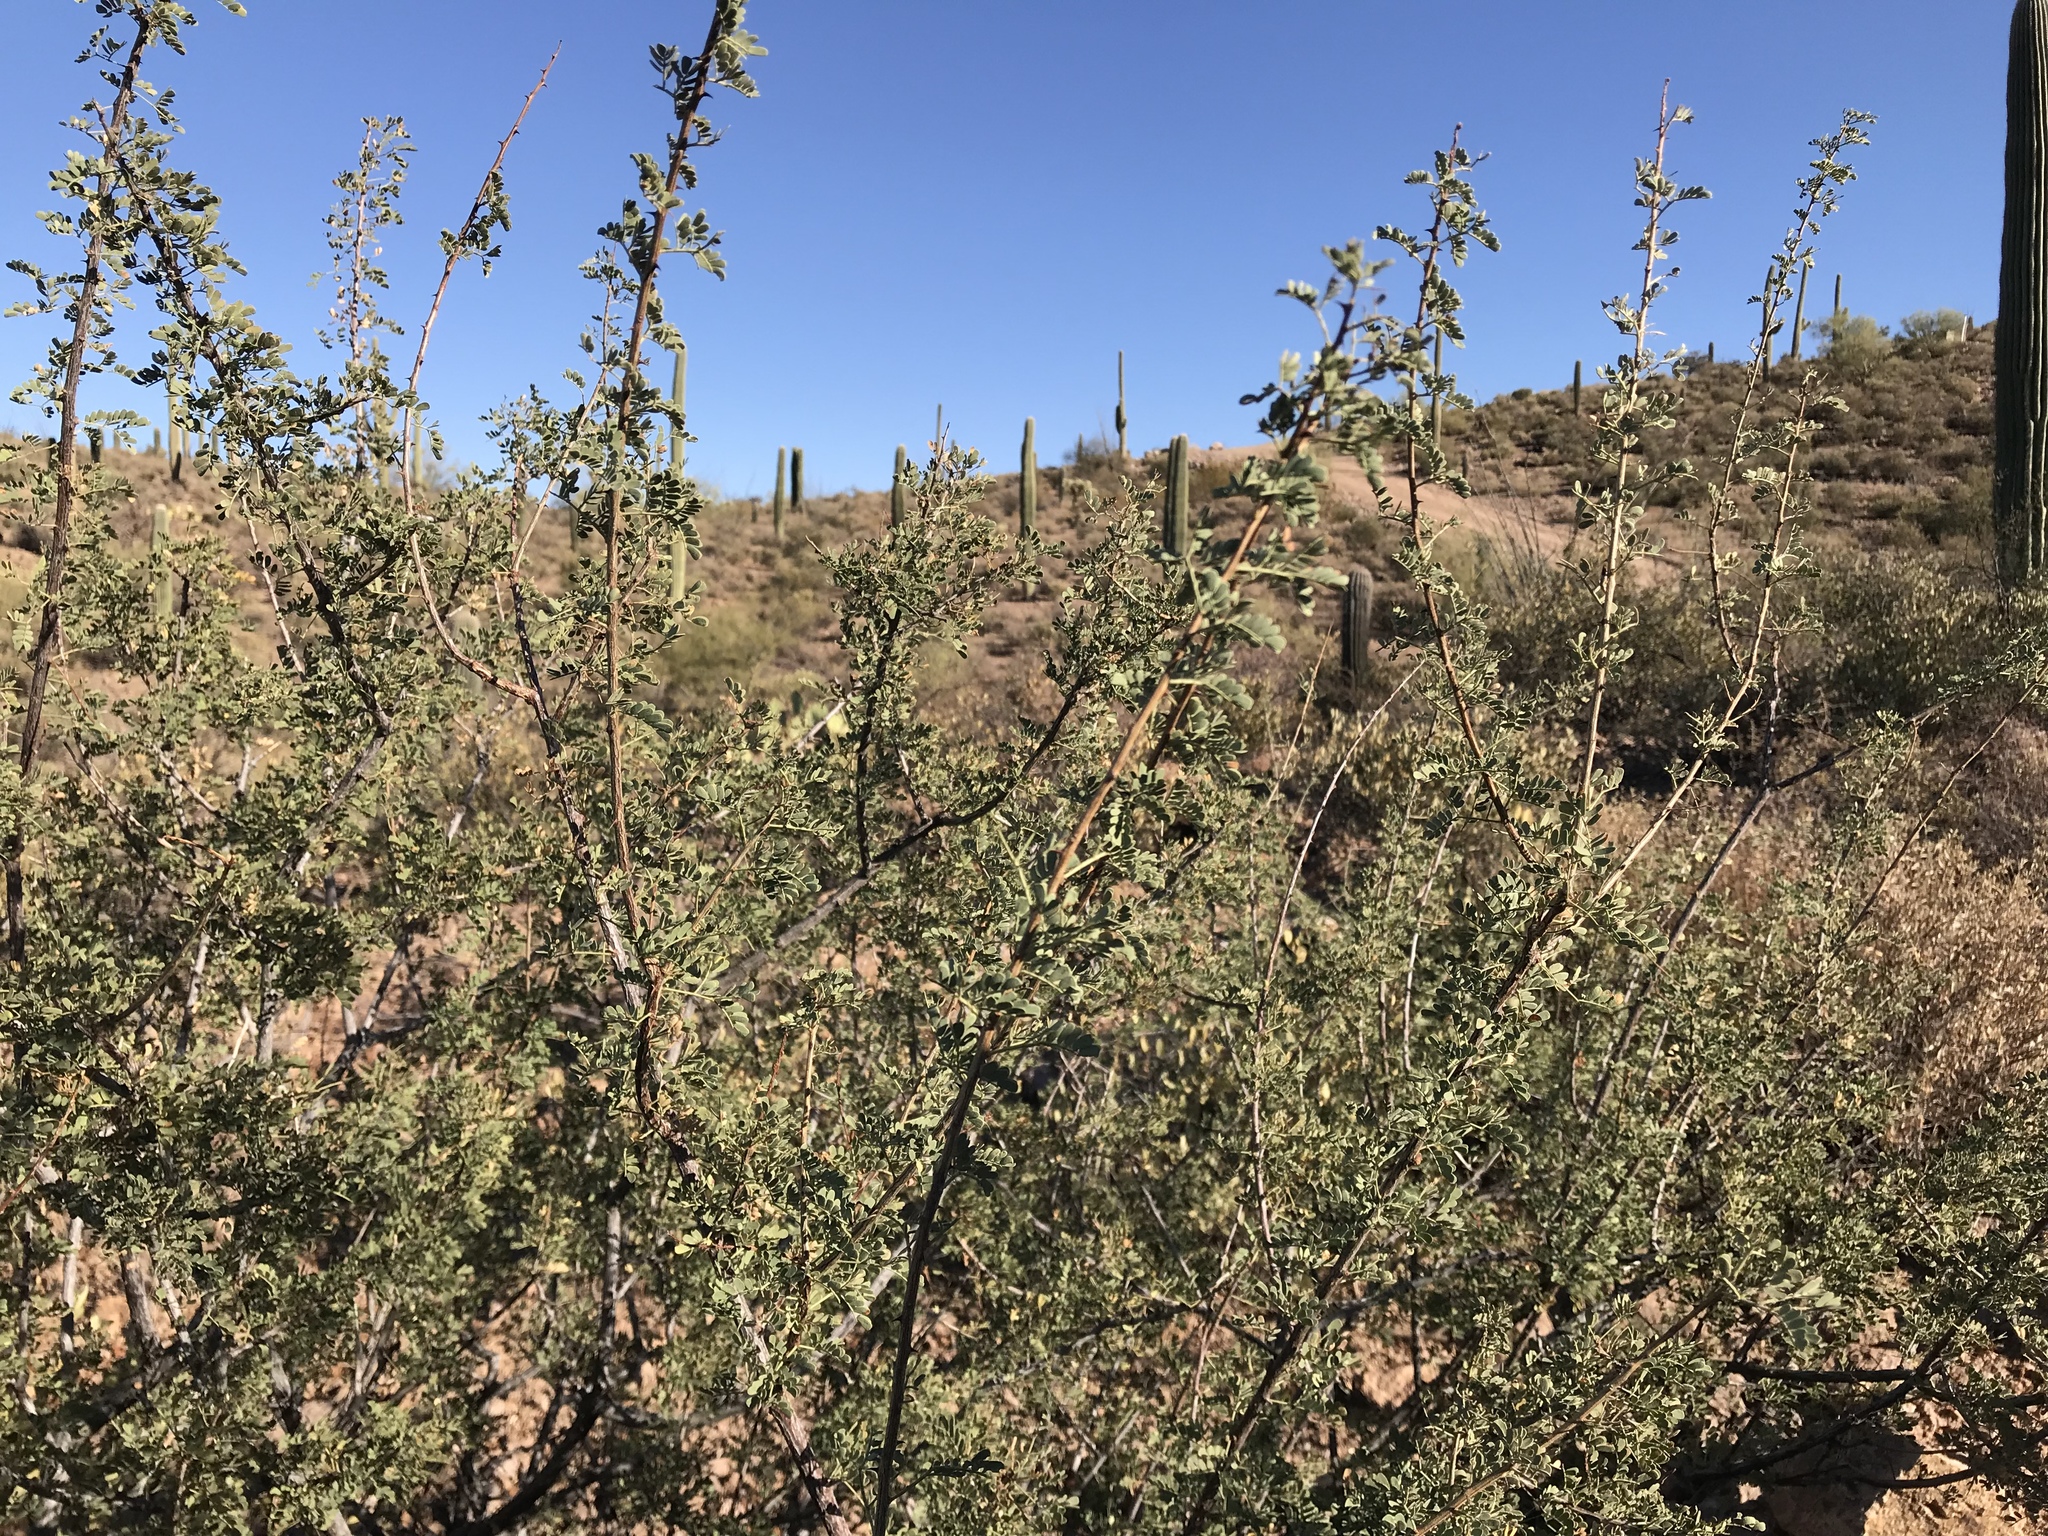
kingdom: Plantae
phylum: Tracheophyta
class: Magnoliopsida
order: Fabales
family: Fabaceae
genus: Senegalia
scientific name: Senegalia greggii
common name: Texas-mimosa
